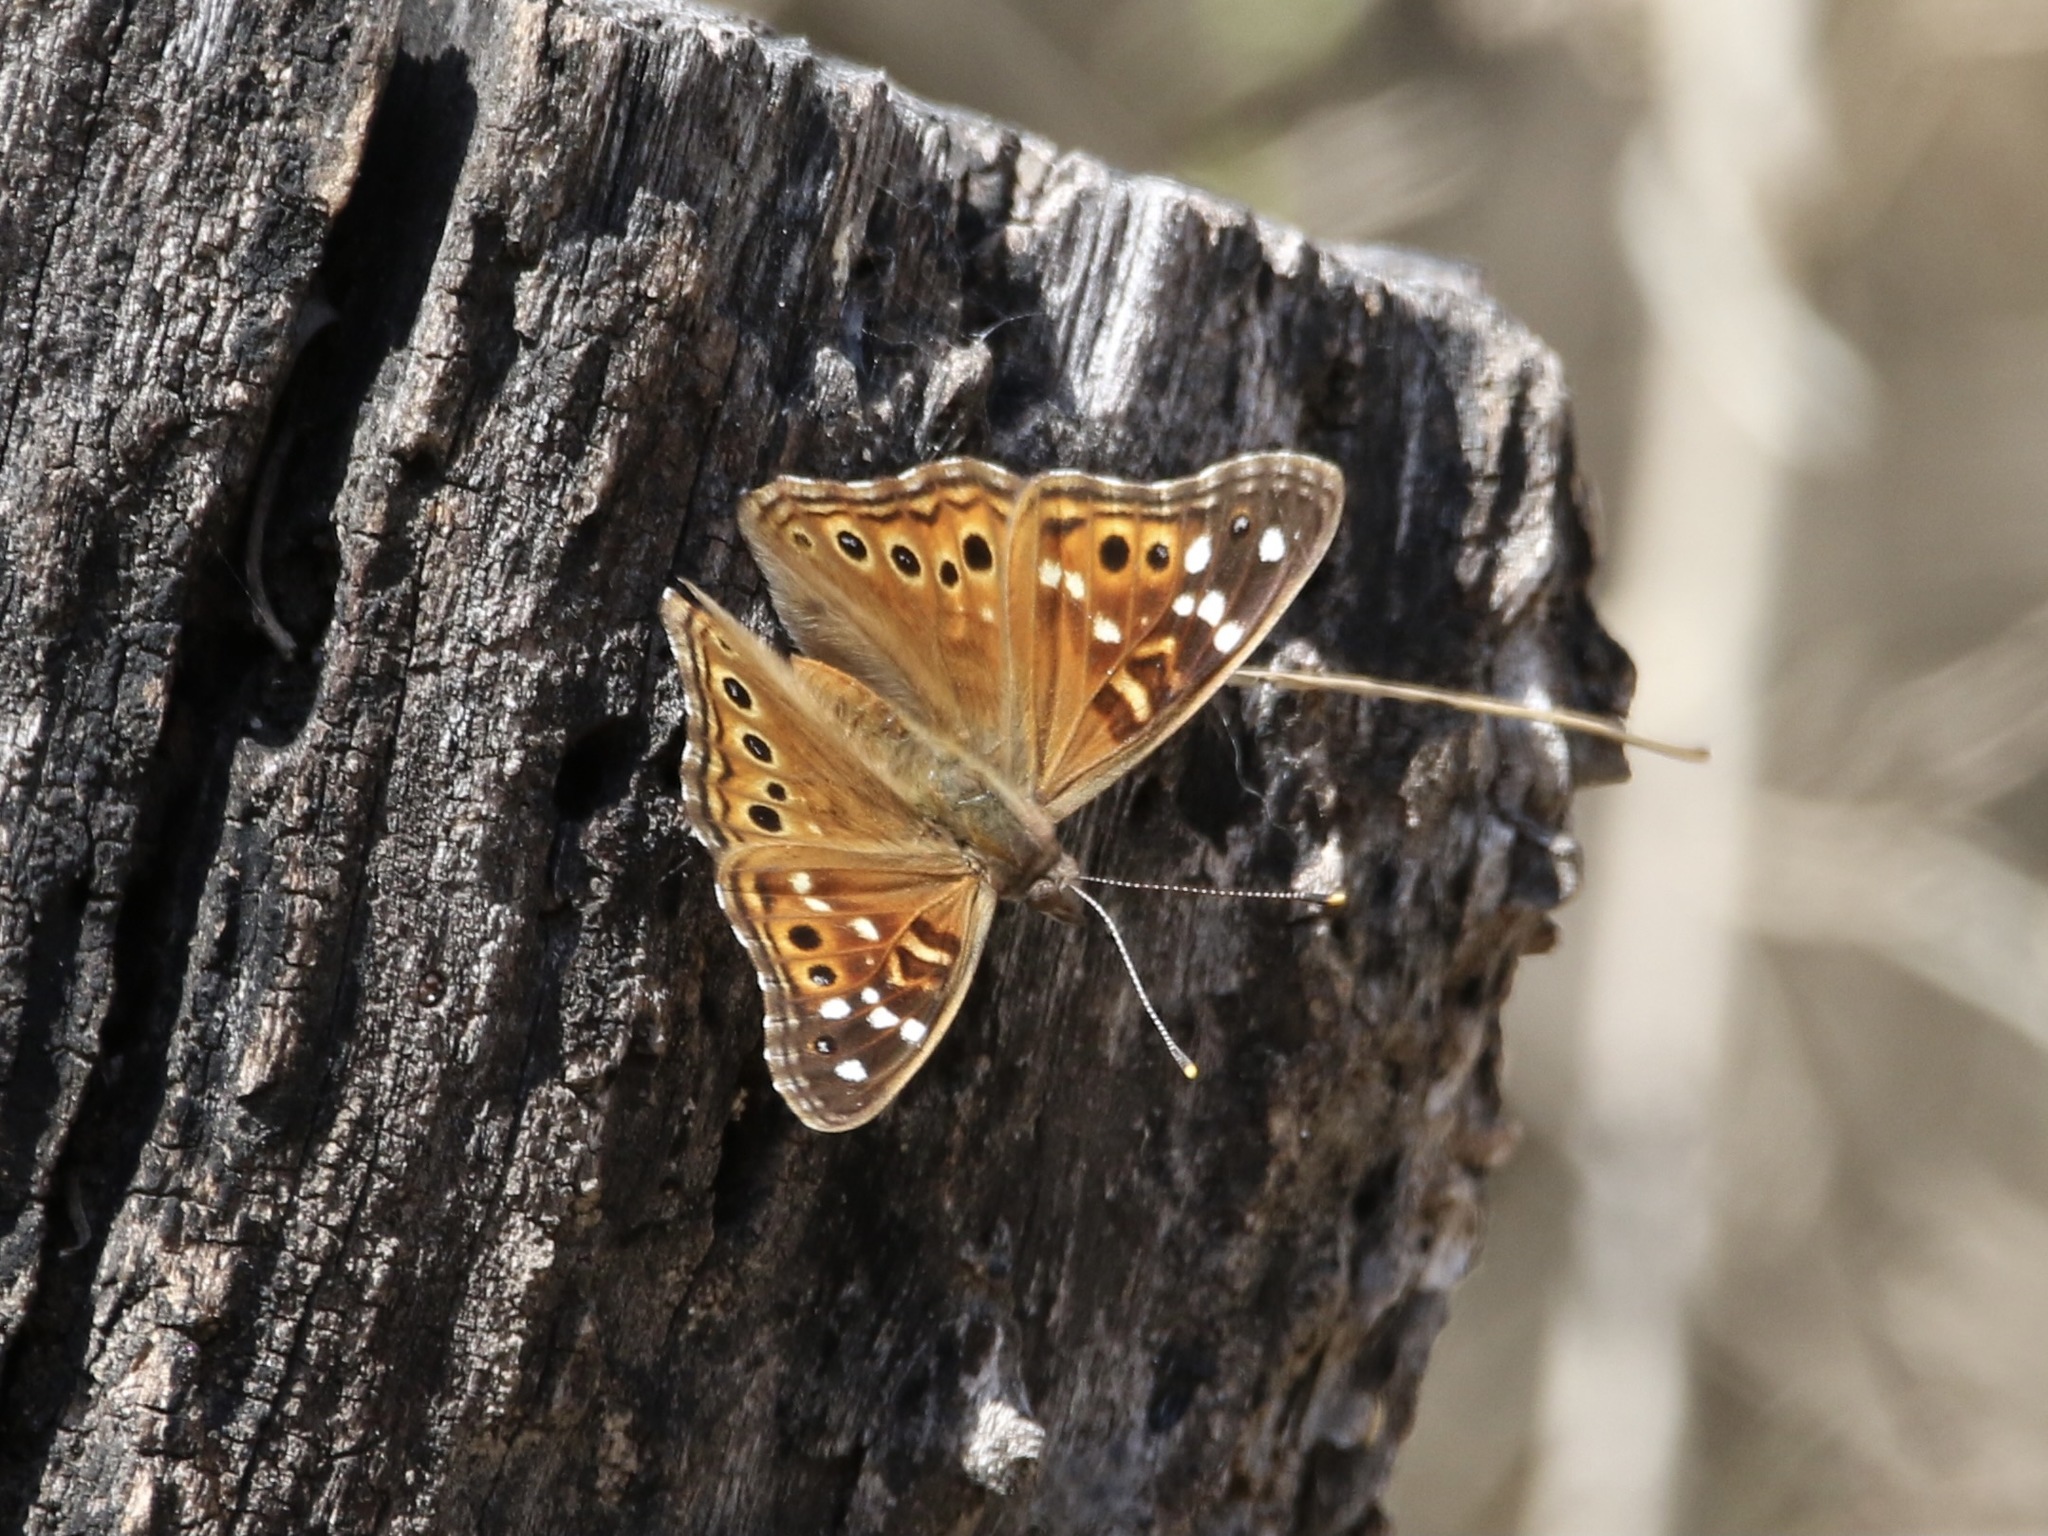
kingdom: Animalia
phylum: Arthropoda
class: Insecta
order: Lepidoptera
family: Nymphalidae
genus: Asterocampa
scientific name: Asterocampa leilia
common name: Empress leilia
